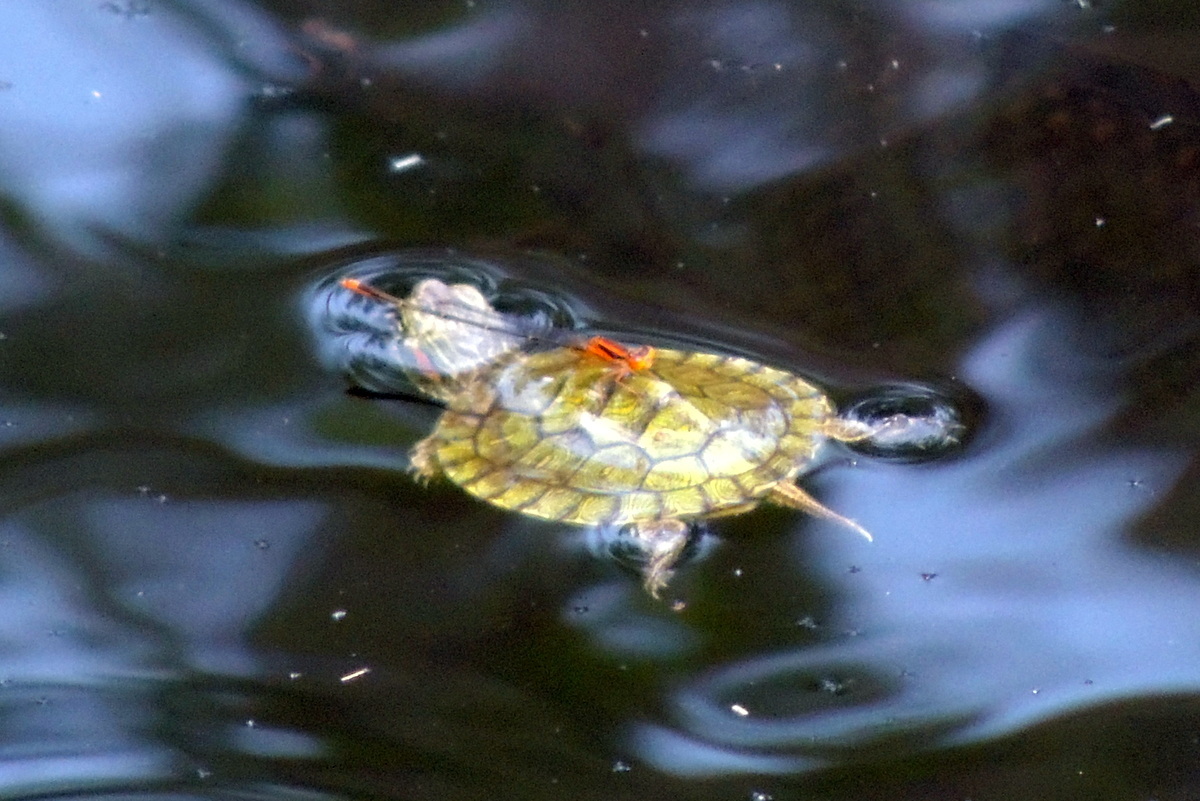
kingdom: Animalia
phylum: Chordata
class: Testudines
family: Emydidae
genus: Trachemys
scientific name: Trachemys scripta
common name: Slider
